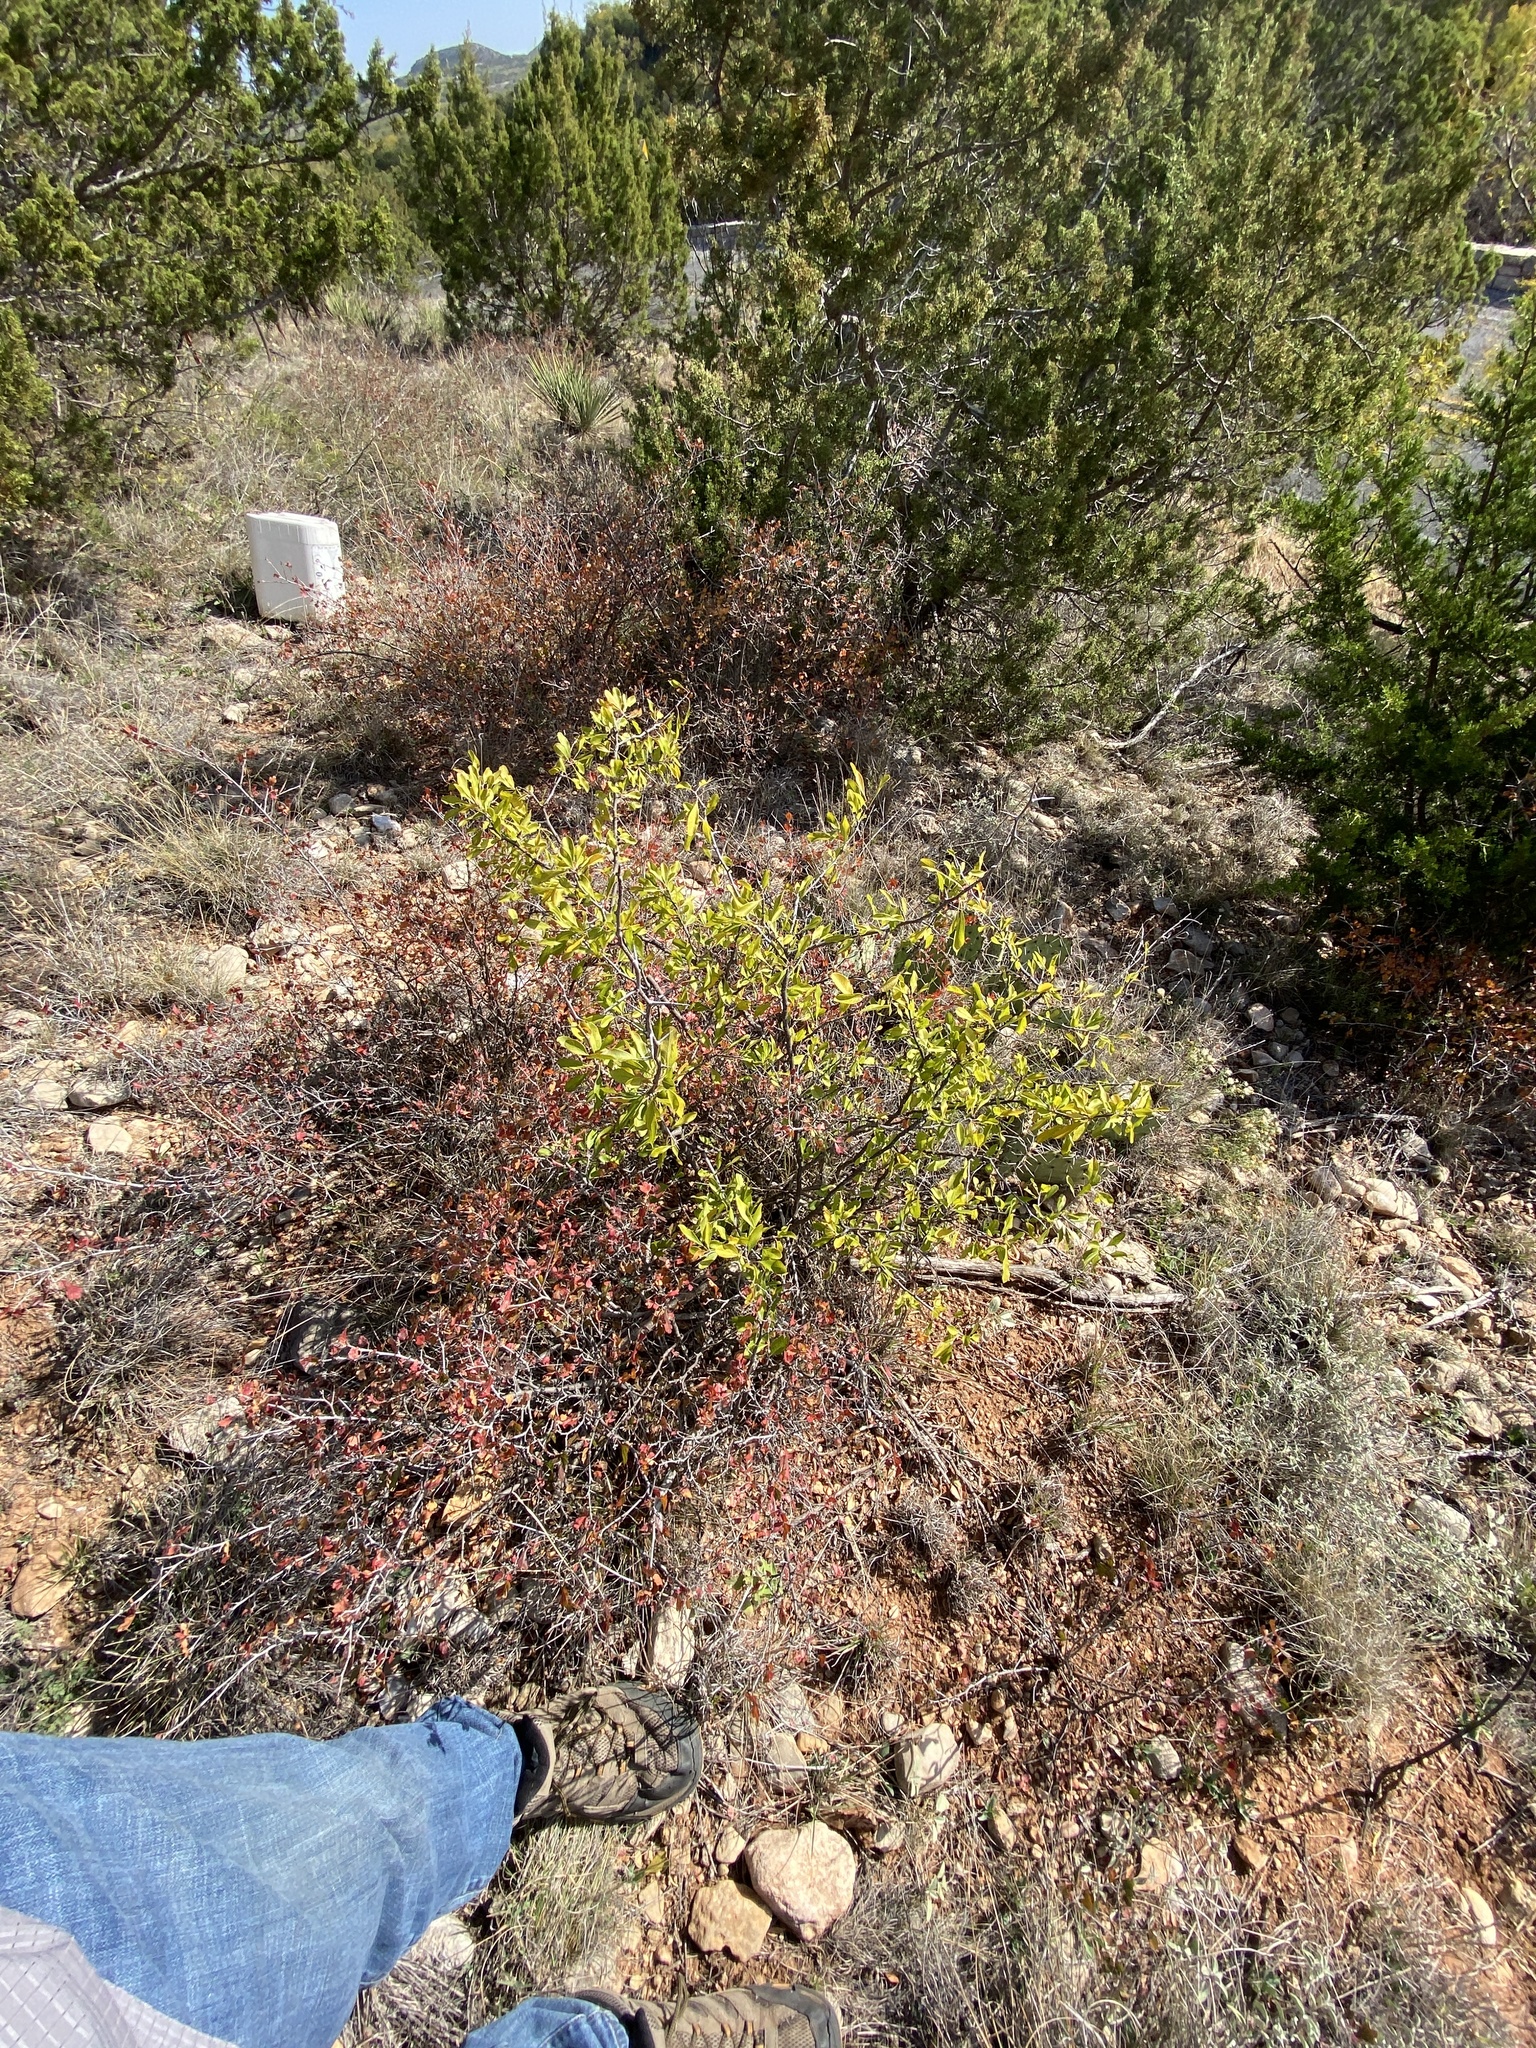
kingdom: Plantae
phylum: Tracheophyta
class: Magnoliopsida
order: Ericales
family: Sapotaceae
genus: Sideroxylon
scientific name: Sideroxylon lanuginosum
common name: Chittamwood
